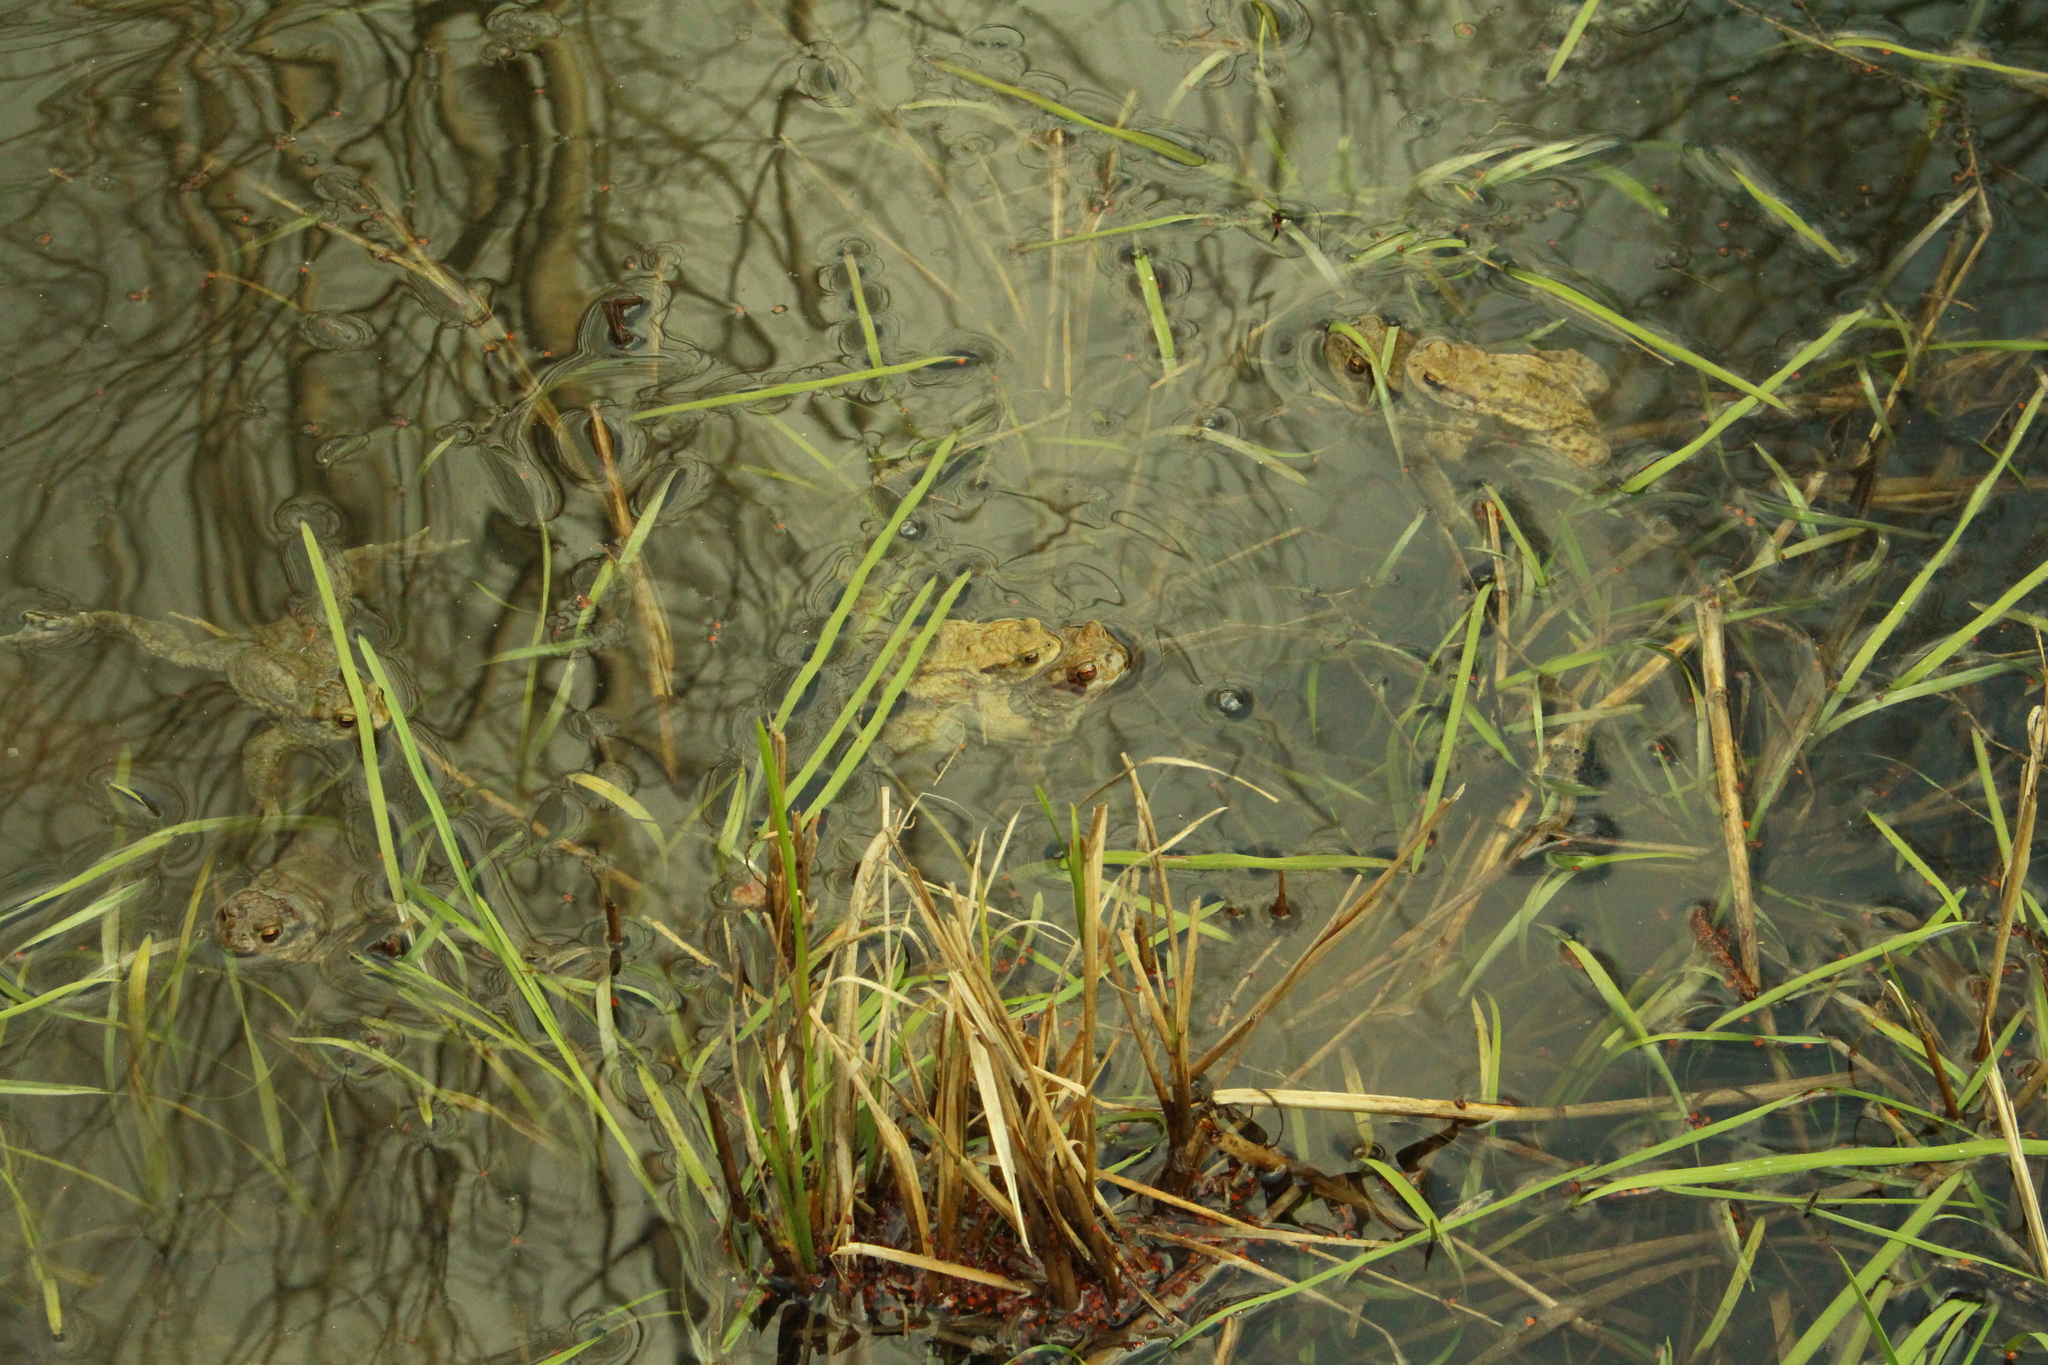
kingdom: Animalia
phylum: Chordata
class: Amphibia
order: Anura
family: Bufonidae
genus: Bufo
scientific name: Bufo bufo
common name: Common toad
